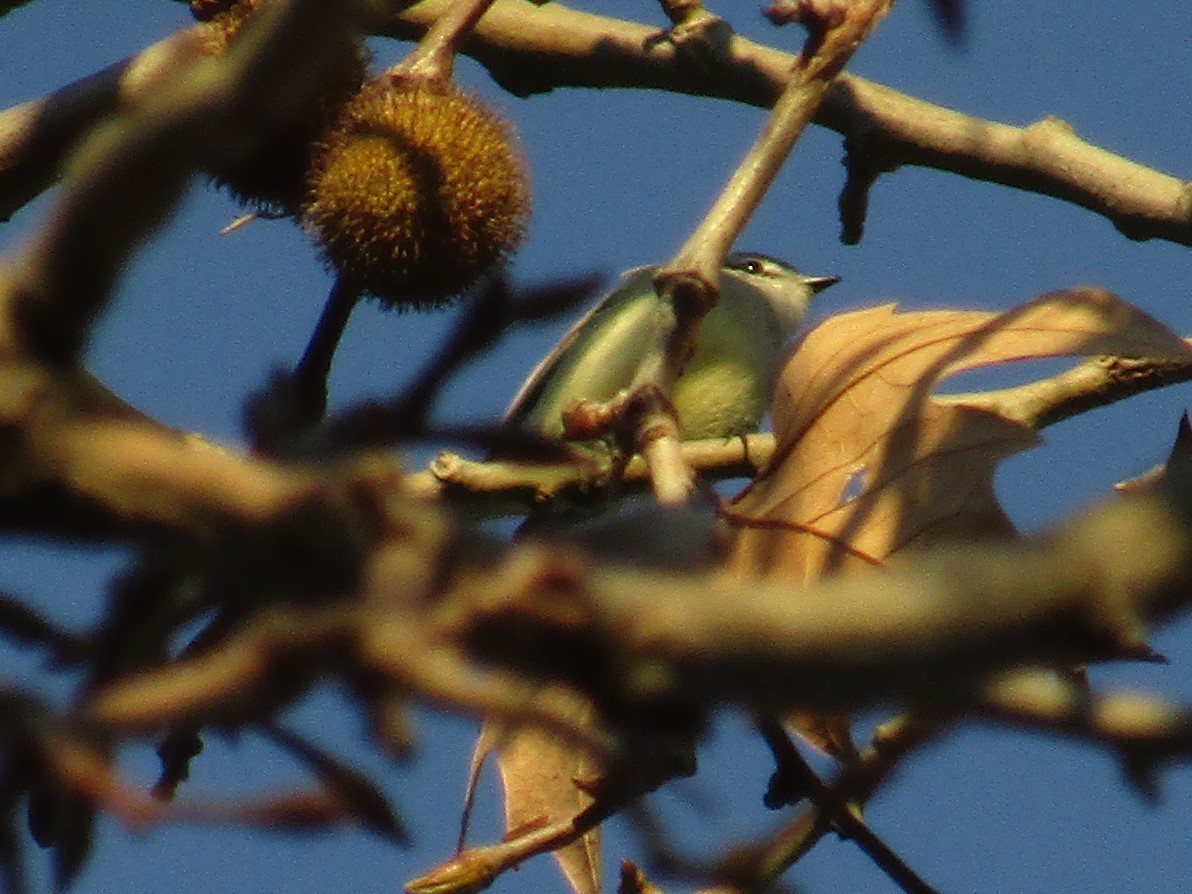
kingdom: Animalia
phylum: Chordata
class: Aves
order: Passeriformes
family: Tyrannidae
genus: Serpophaga
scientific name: Serpophaga subcristata
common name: White-crested tyrannulet
